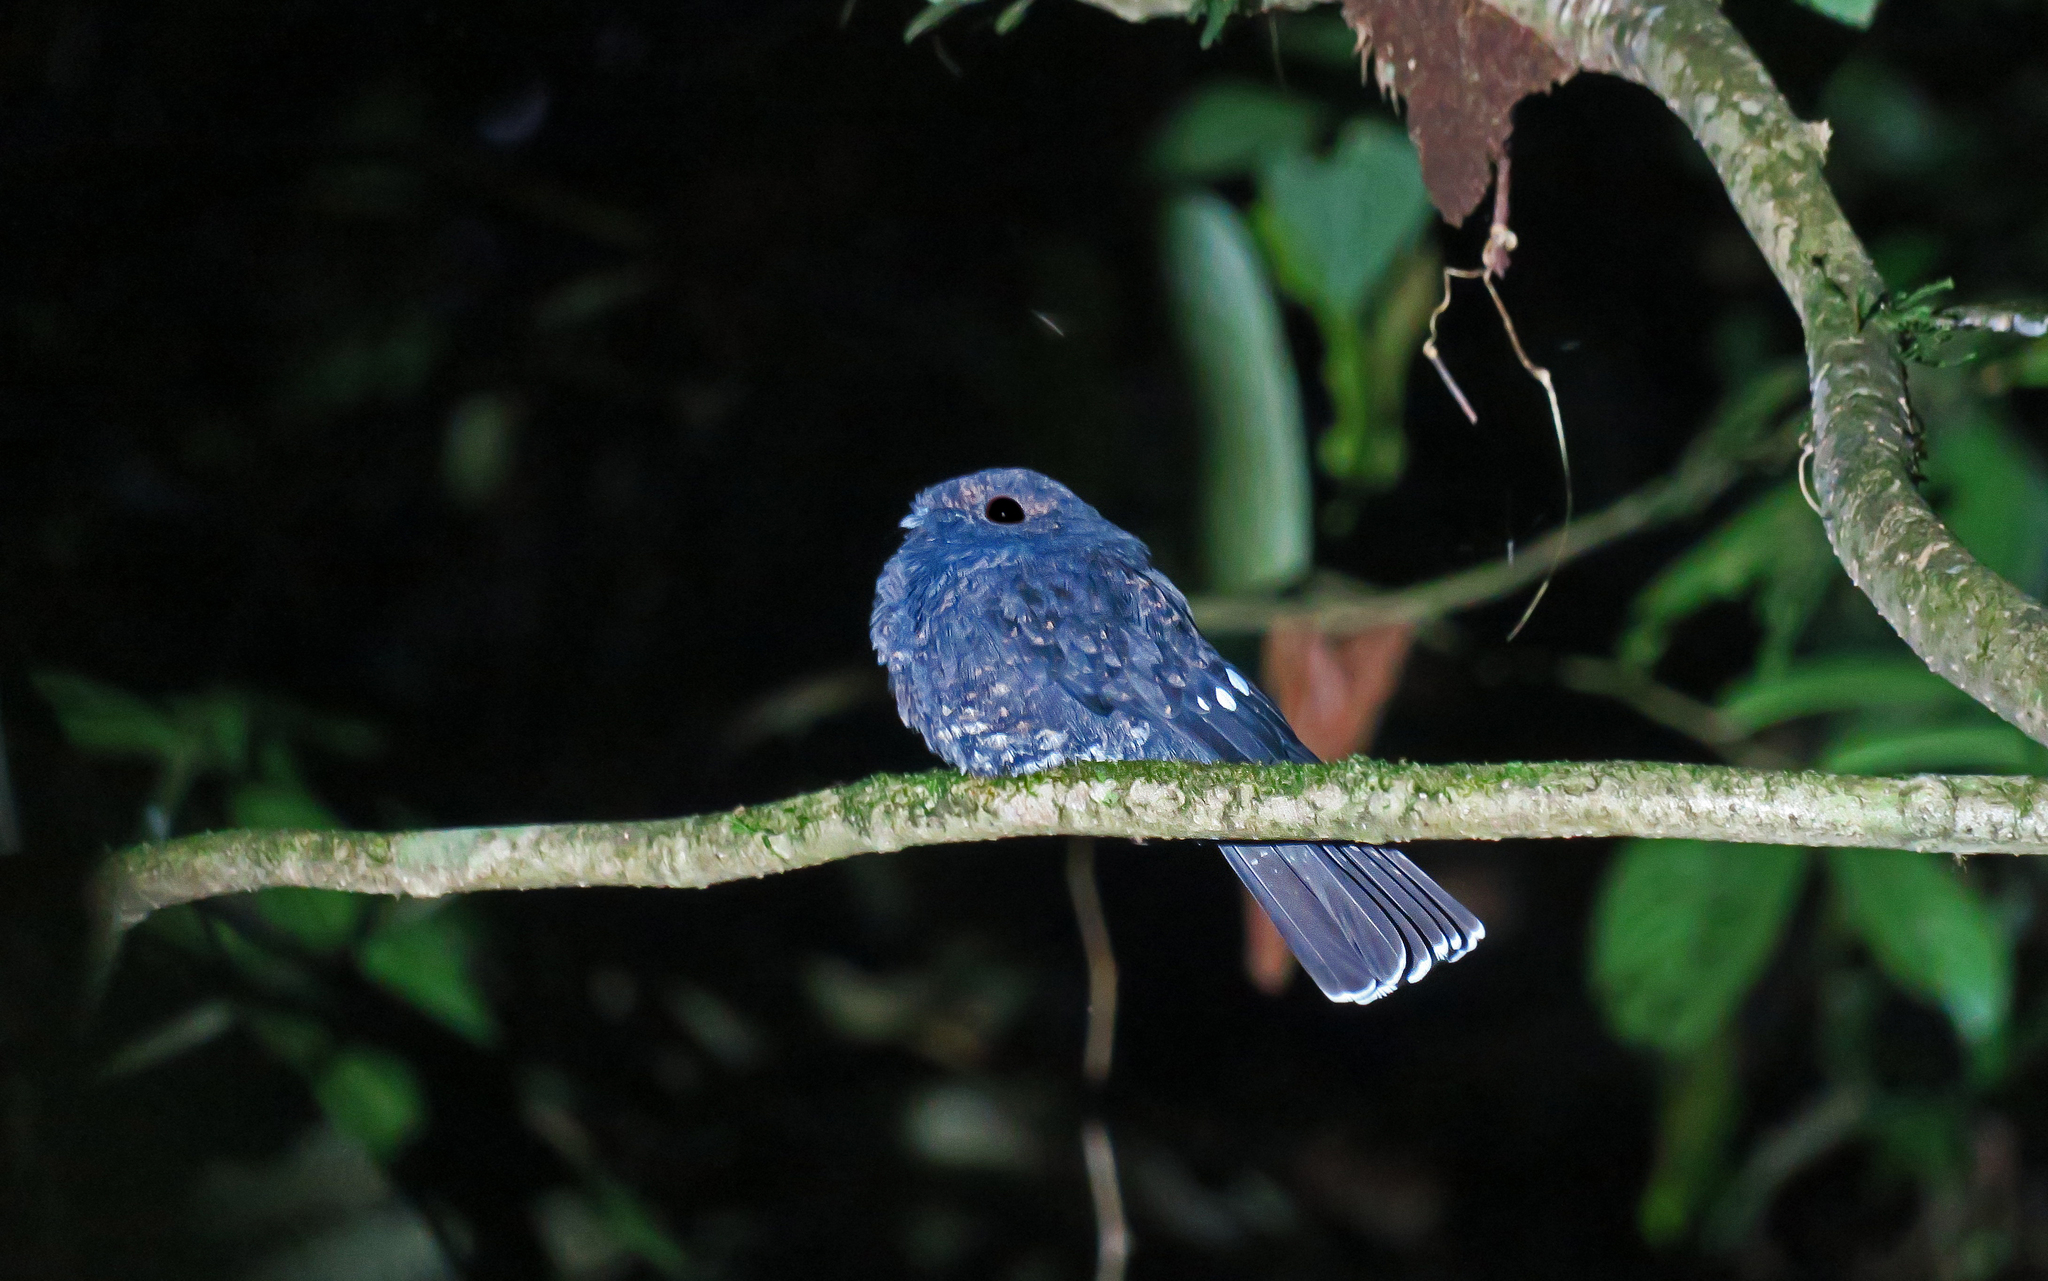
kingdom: Animalia
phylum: Chordata
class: Aves
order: Caprimulgiformes
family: Caprimulgidae
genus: Nyctiphrynus
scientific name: Nyctiphrynus rosenbergi
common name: Choco poorwill
